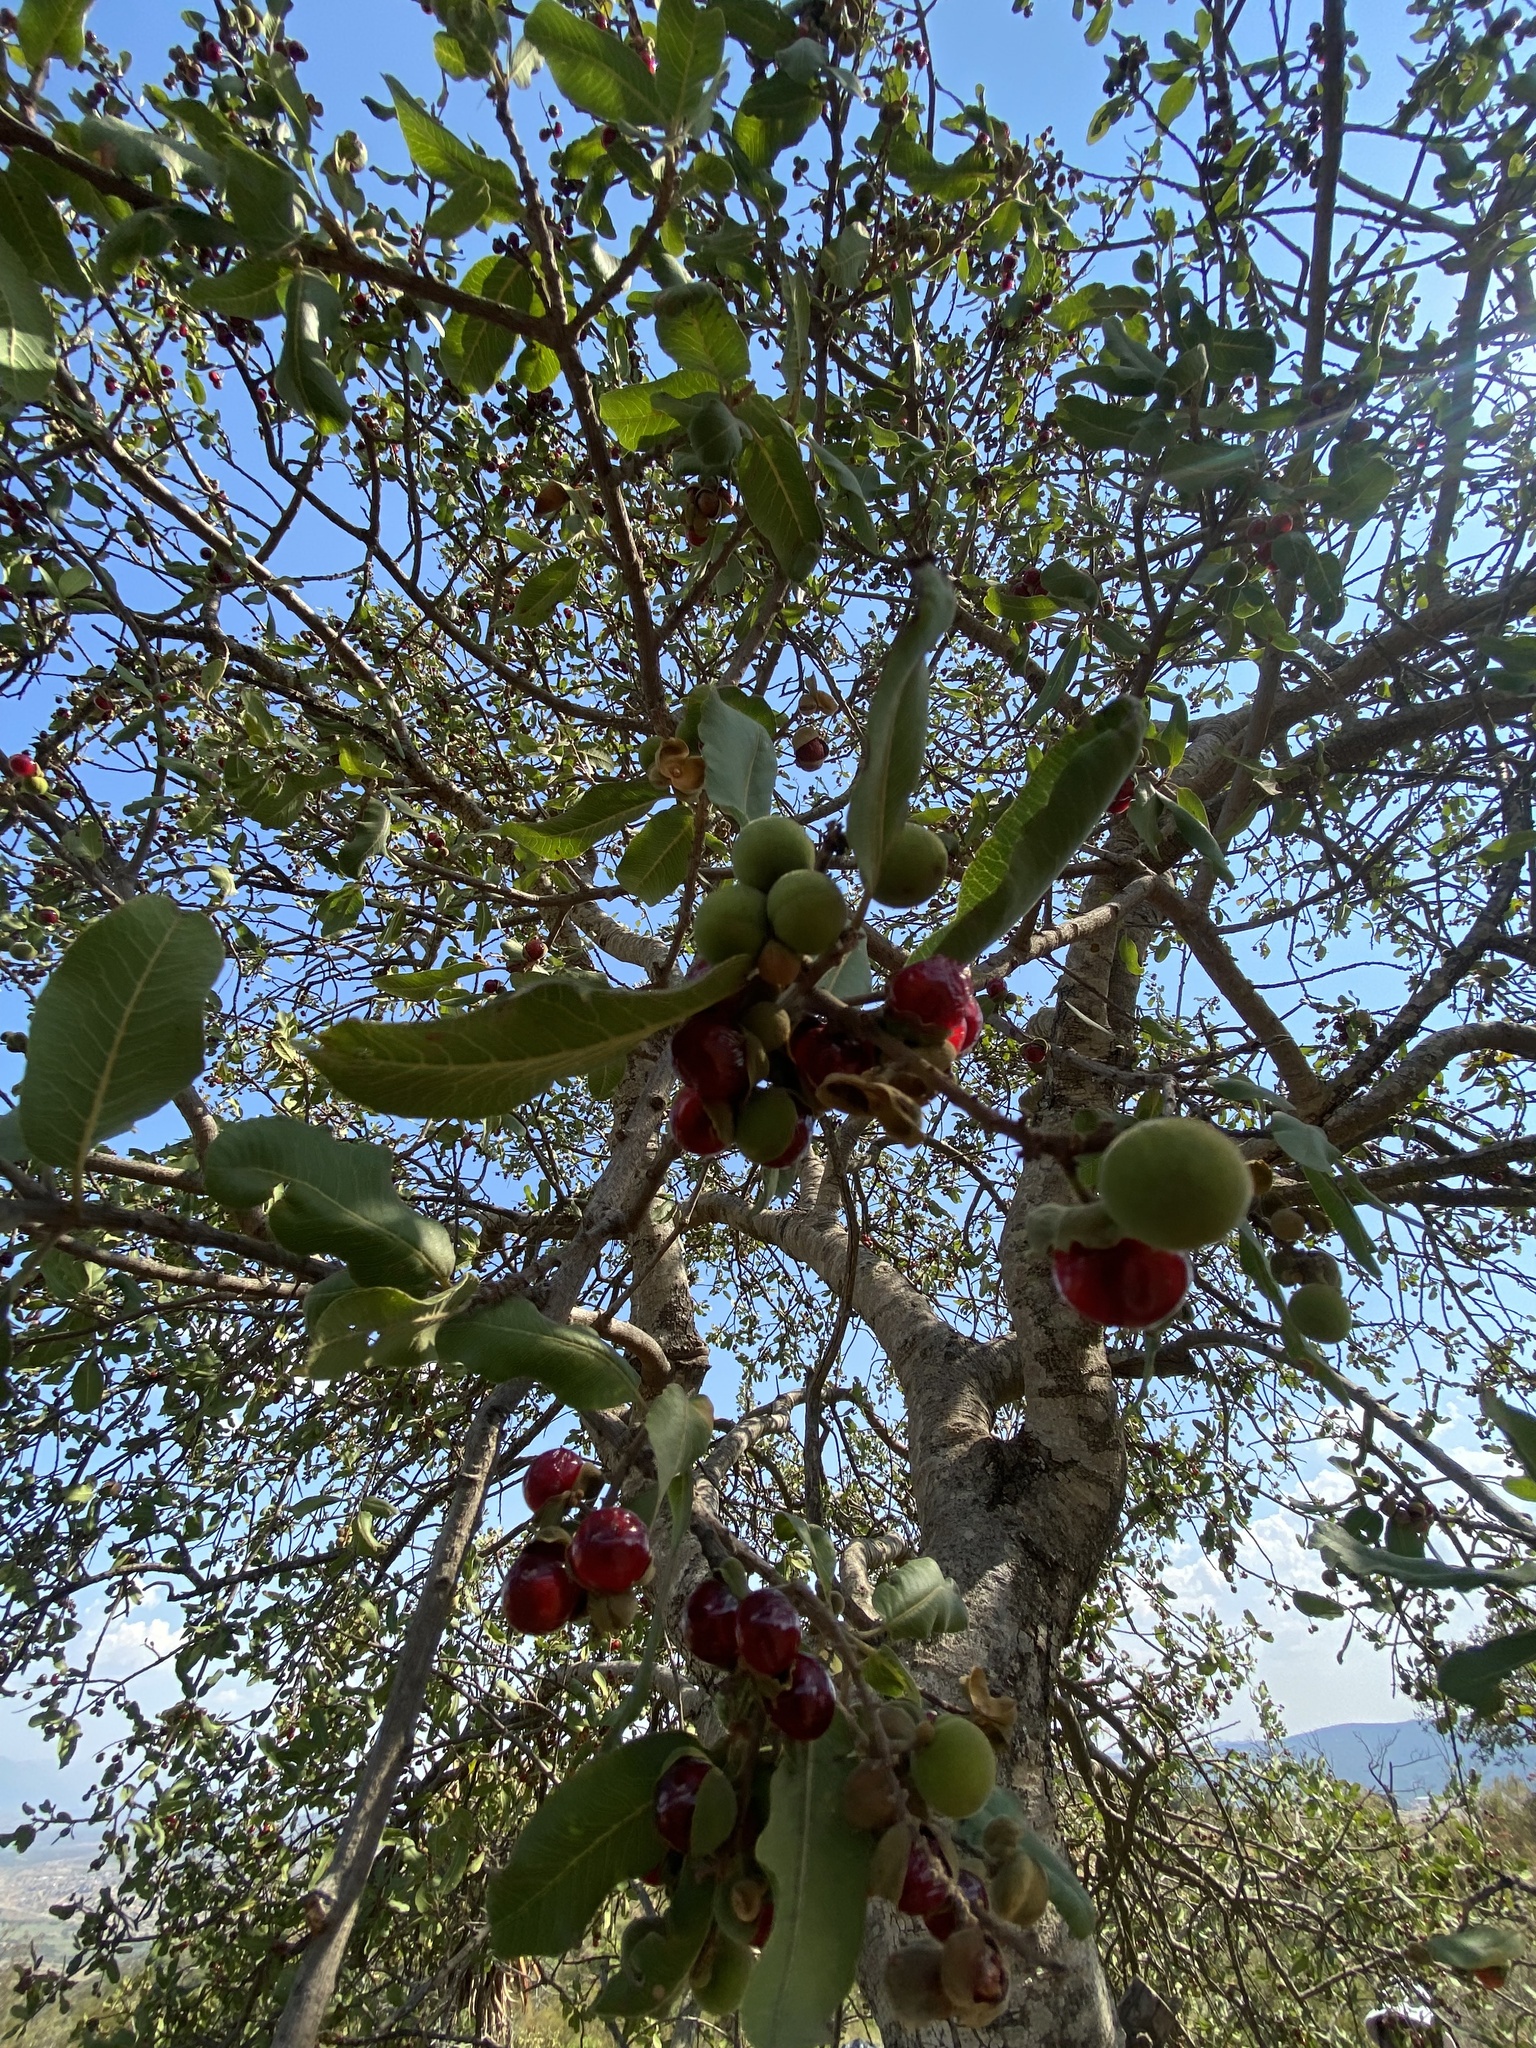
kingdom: Plantae
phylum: Tracheophyta
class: Magnoliopsida
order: Sapindales
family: Sapindaceae
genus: Pappea
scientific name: Pappea capensis
